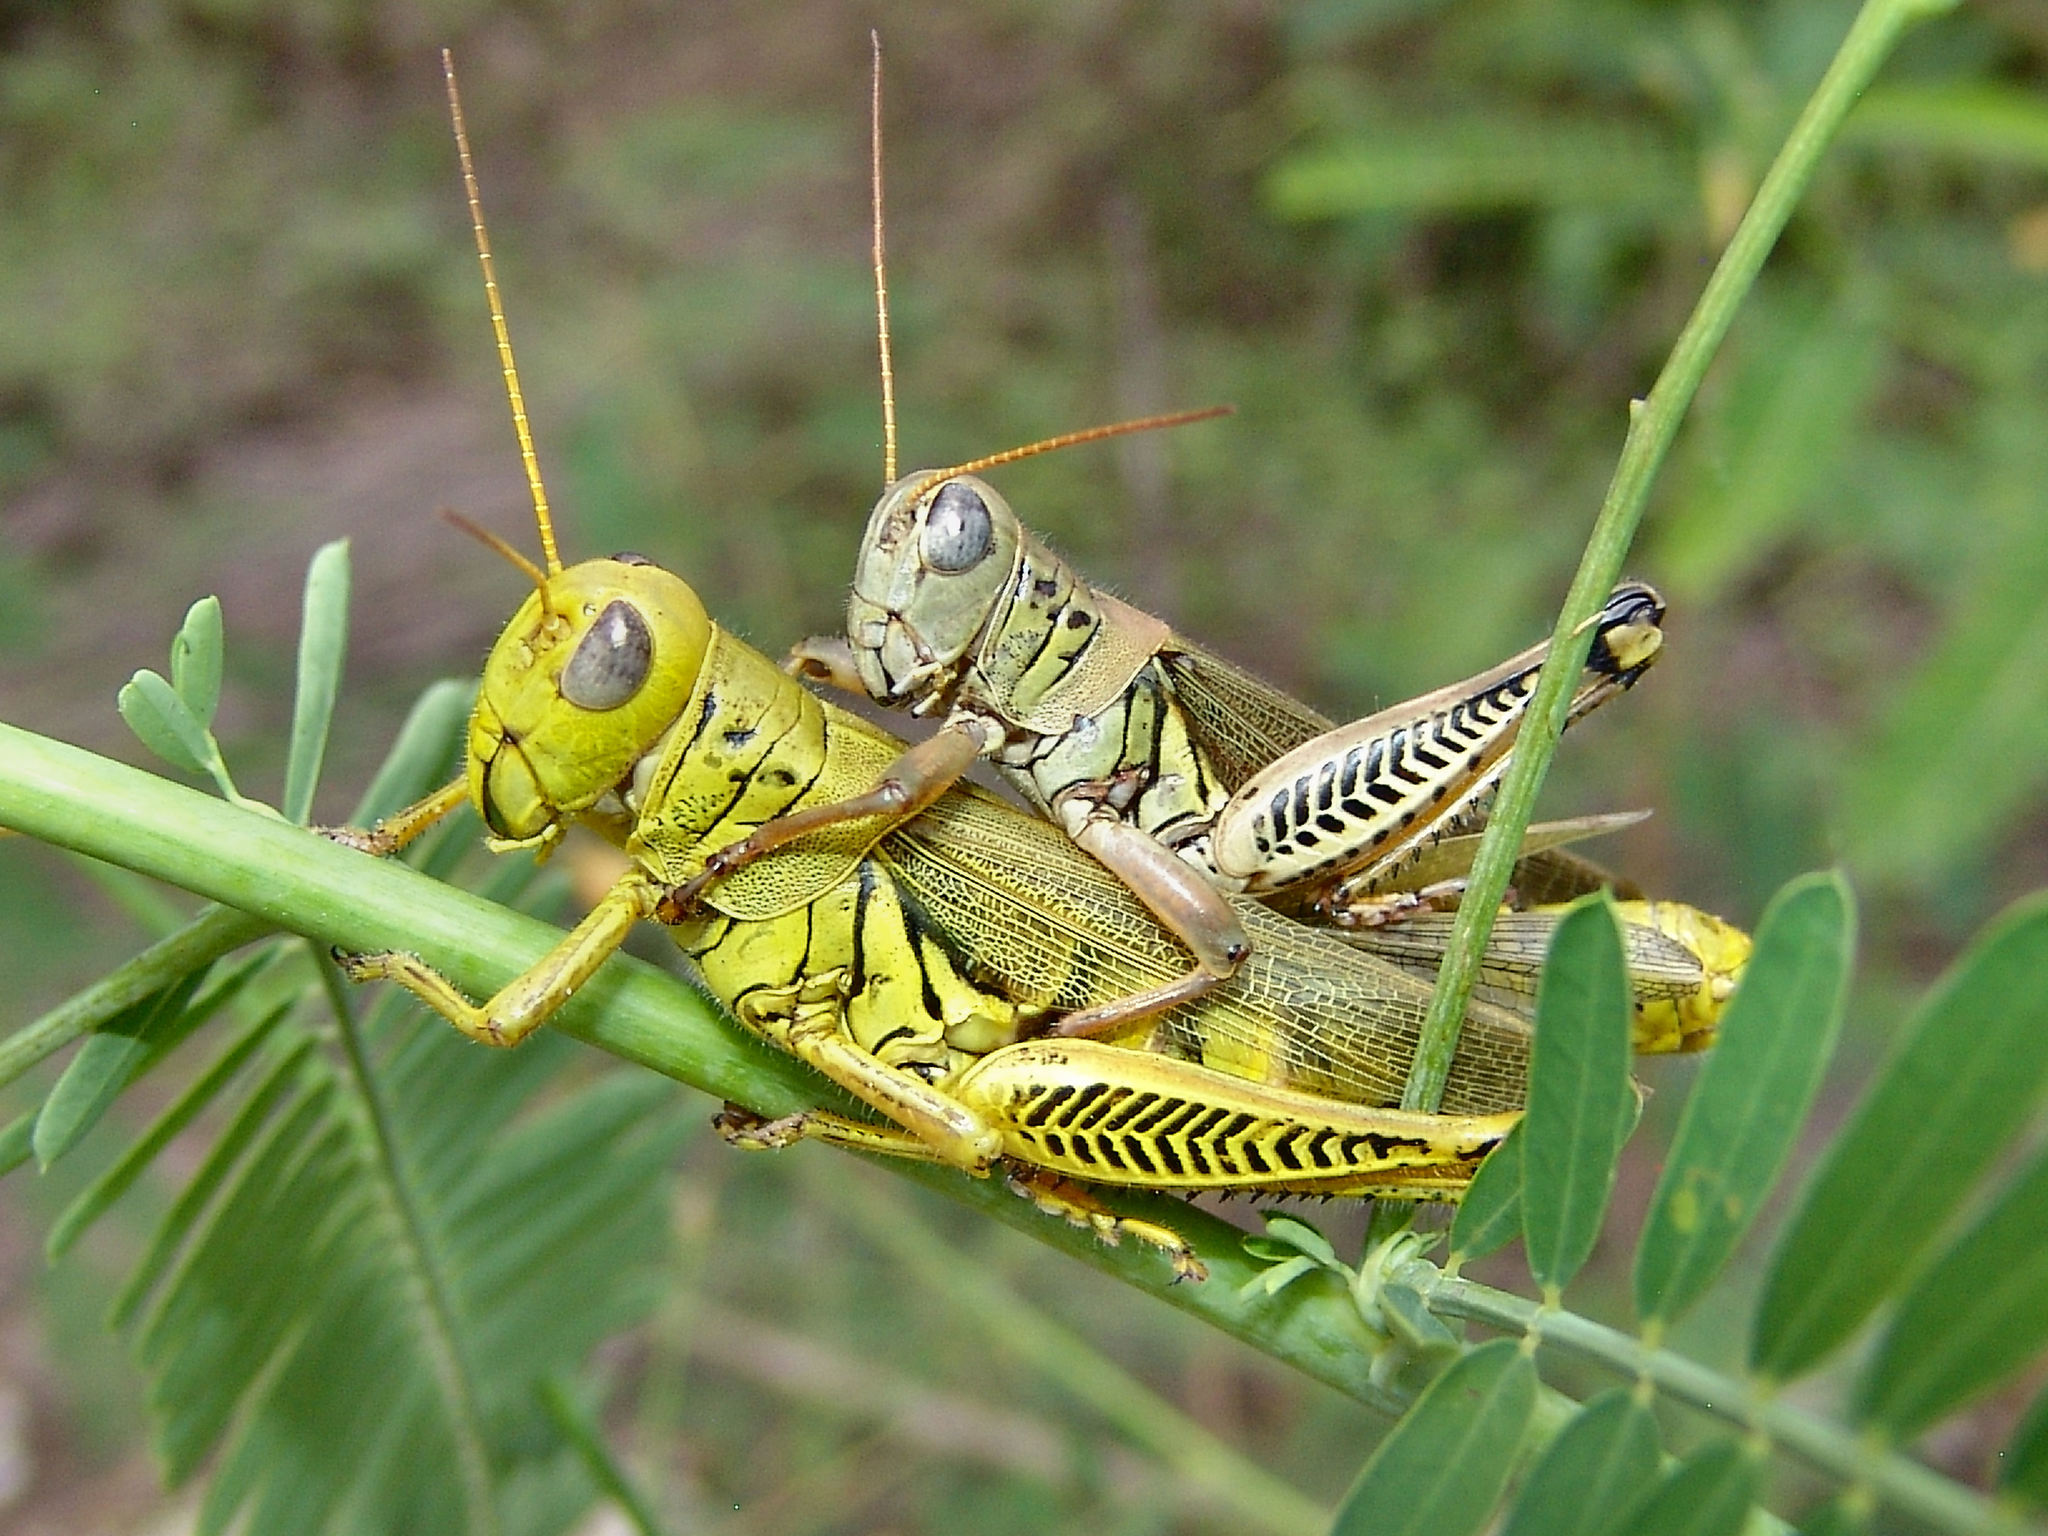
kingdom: Animalia
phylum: Arthropoda
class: Insecta
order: Orthoptera
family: Acrididae
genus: Melanoplus
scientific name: Melanoplus differentialis
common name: Differential grasshopper
